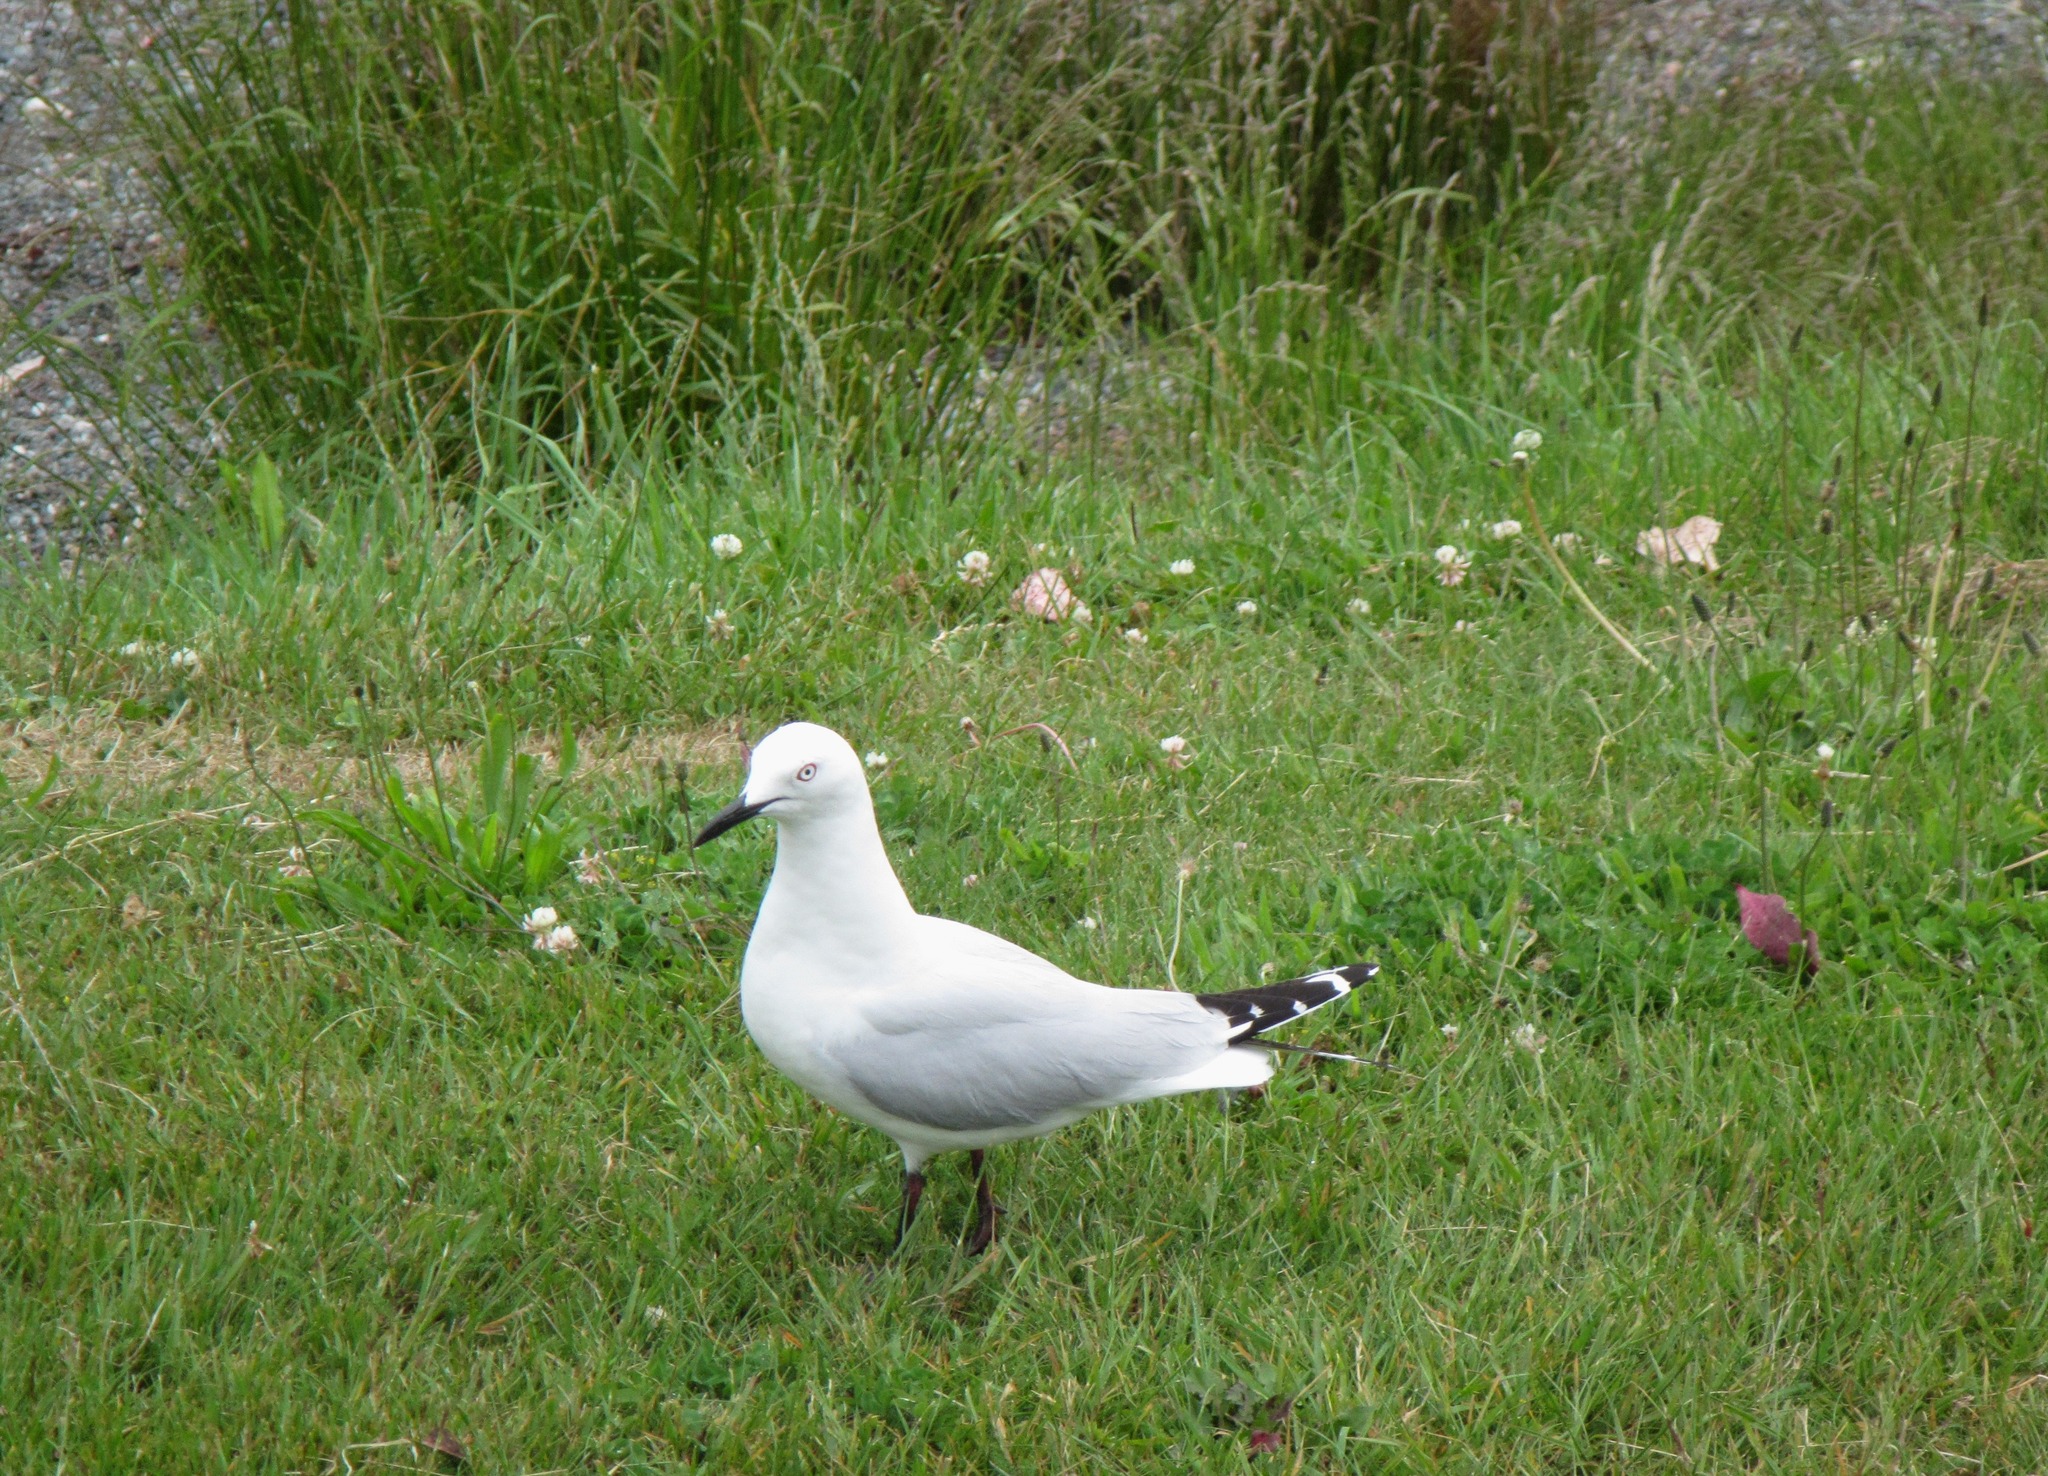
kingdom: Animalia
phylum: Chordata
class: Aves
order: Charadriiformes
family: Laridae
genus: Chroicocephalus
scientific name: Chroicocephalus bulleri
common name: Black-billed gull
